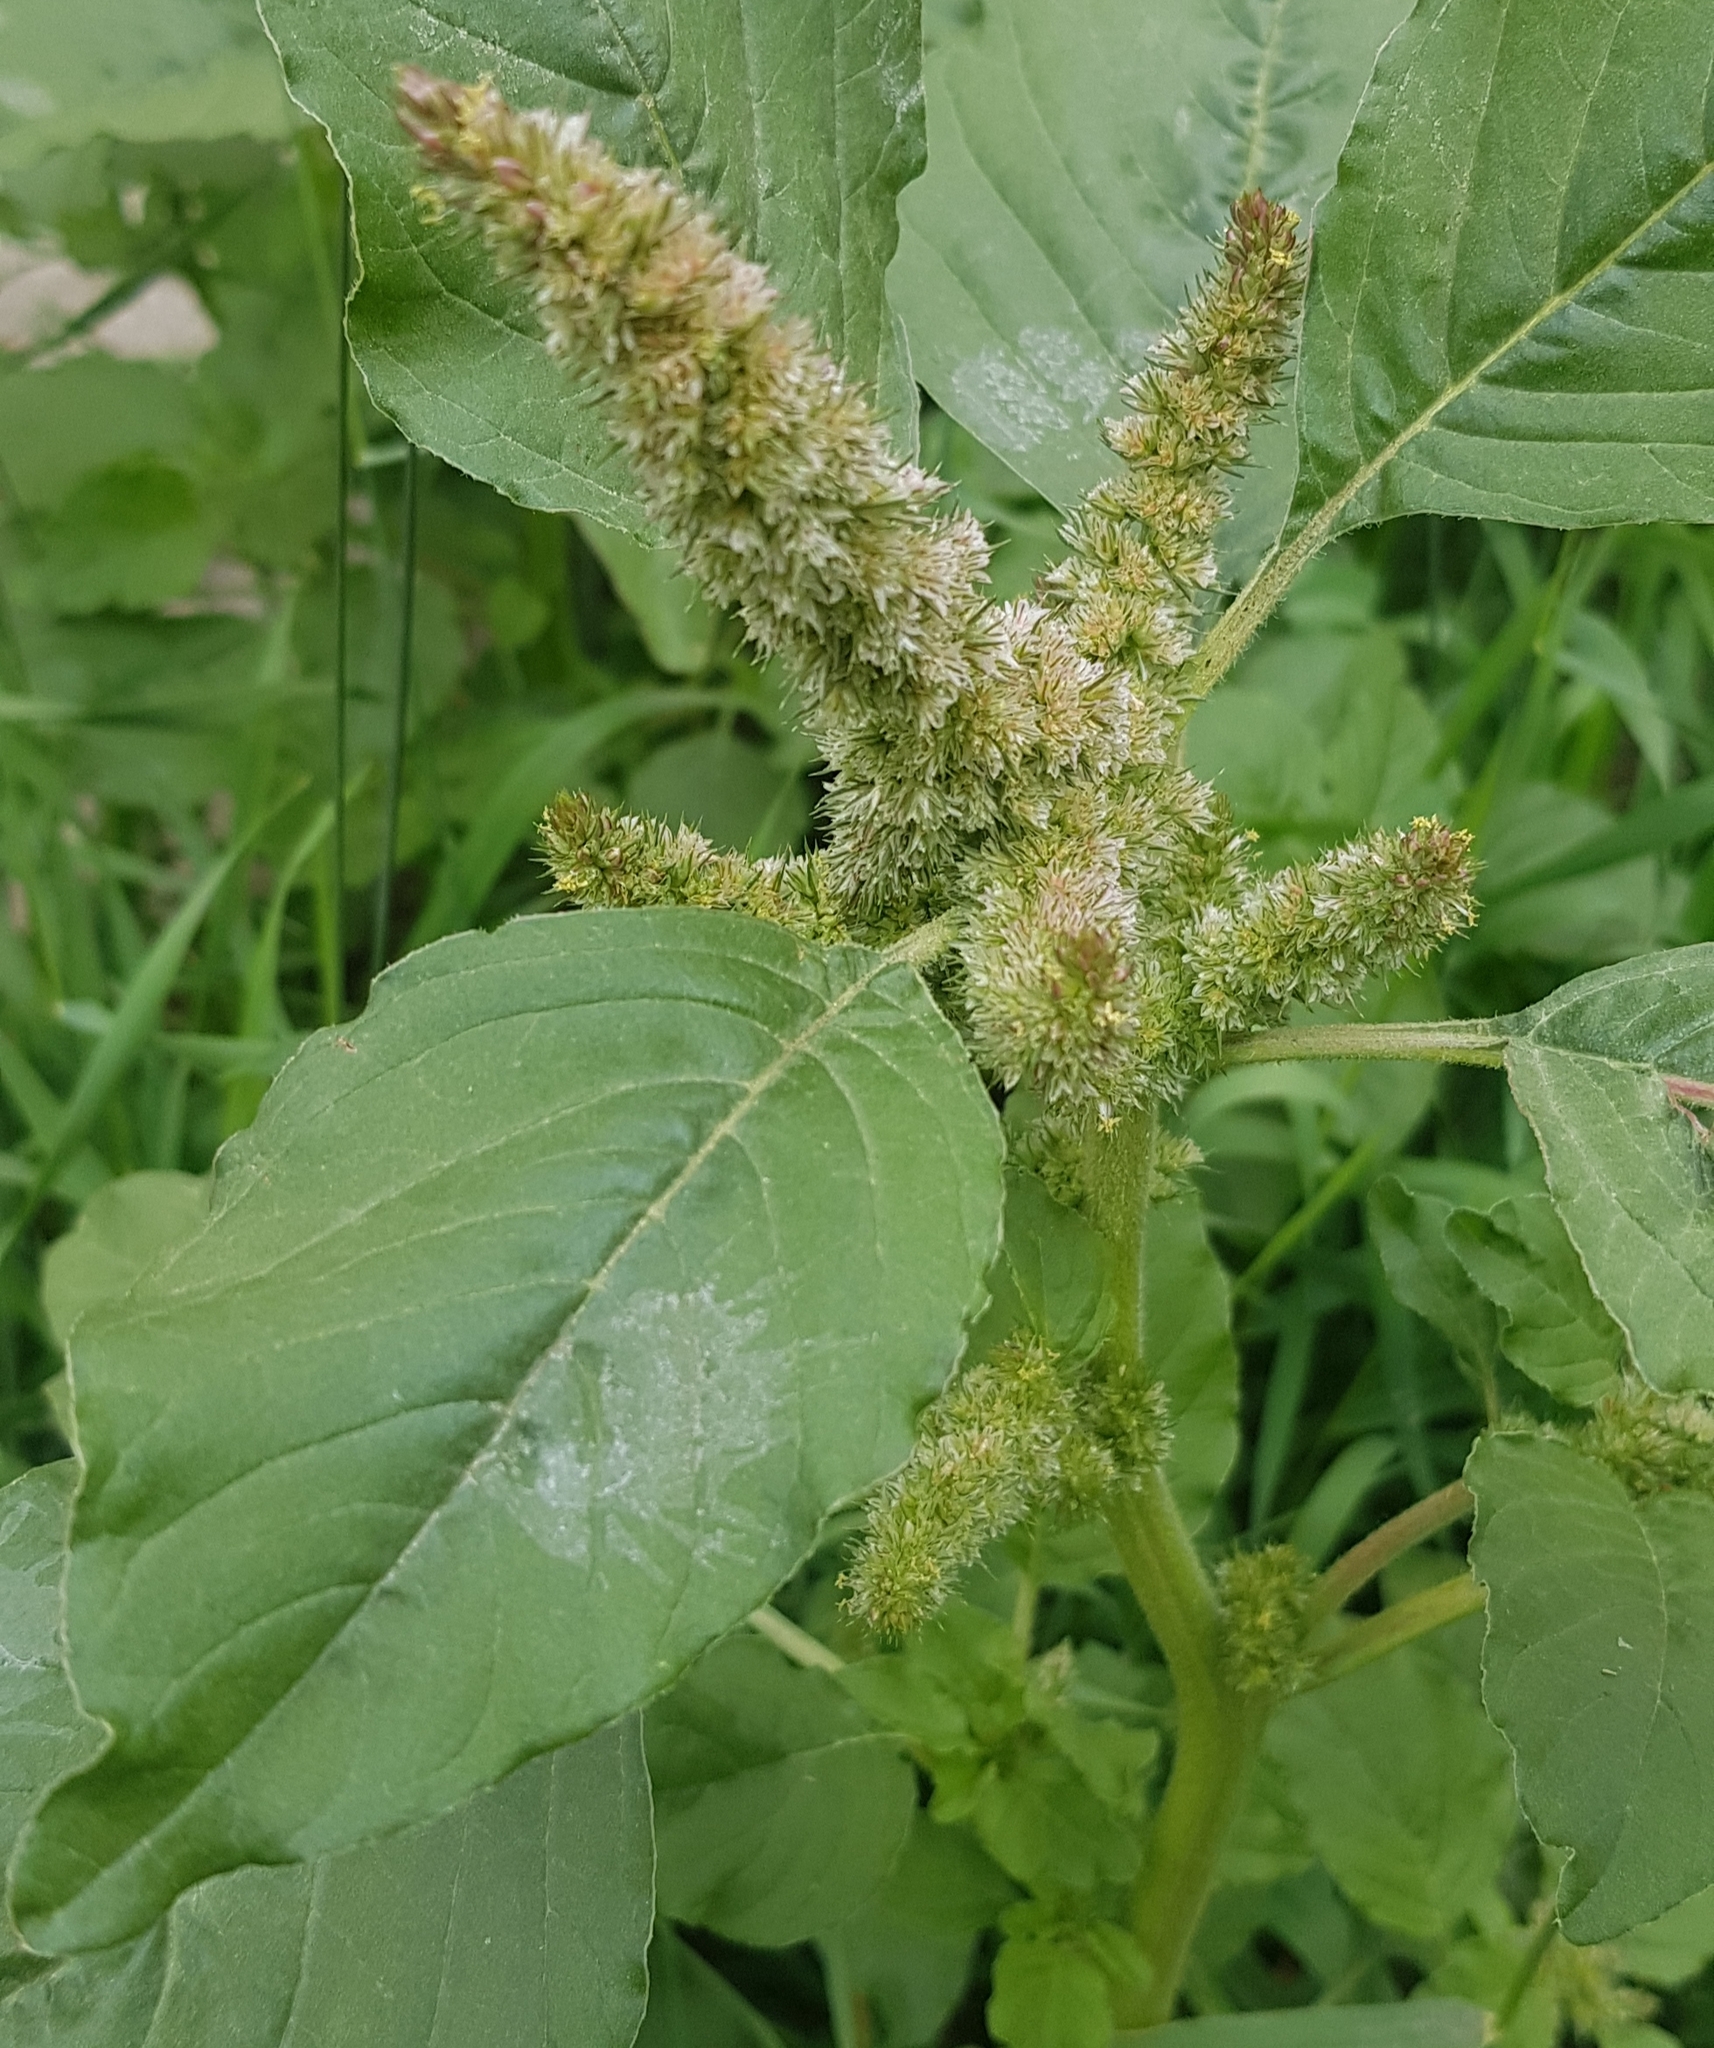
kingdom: Plantae
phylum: Tracheophyta
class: Magnoliopsida
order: Caryophyllales
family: Amaranthaceae
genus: Amaranthus
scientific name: Amaranthus retroflexus
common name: Redroot amaranth
